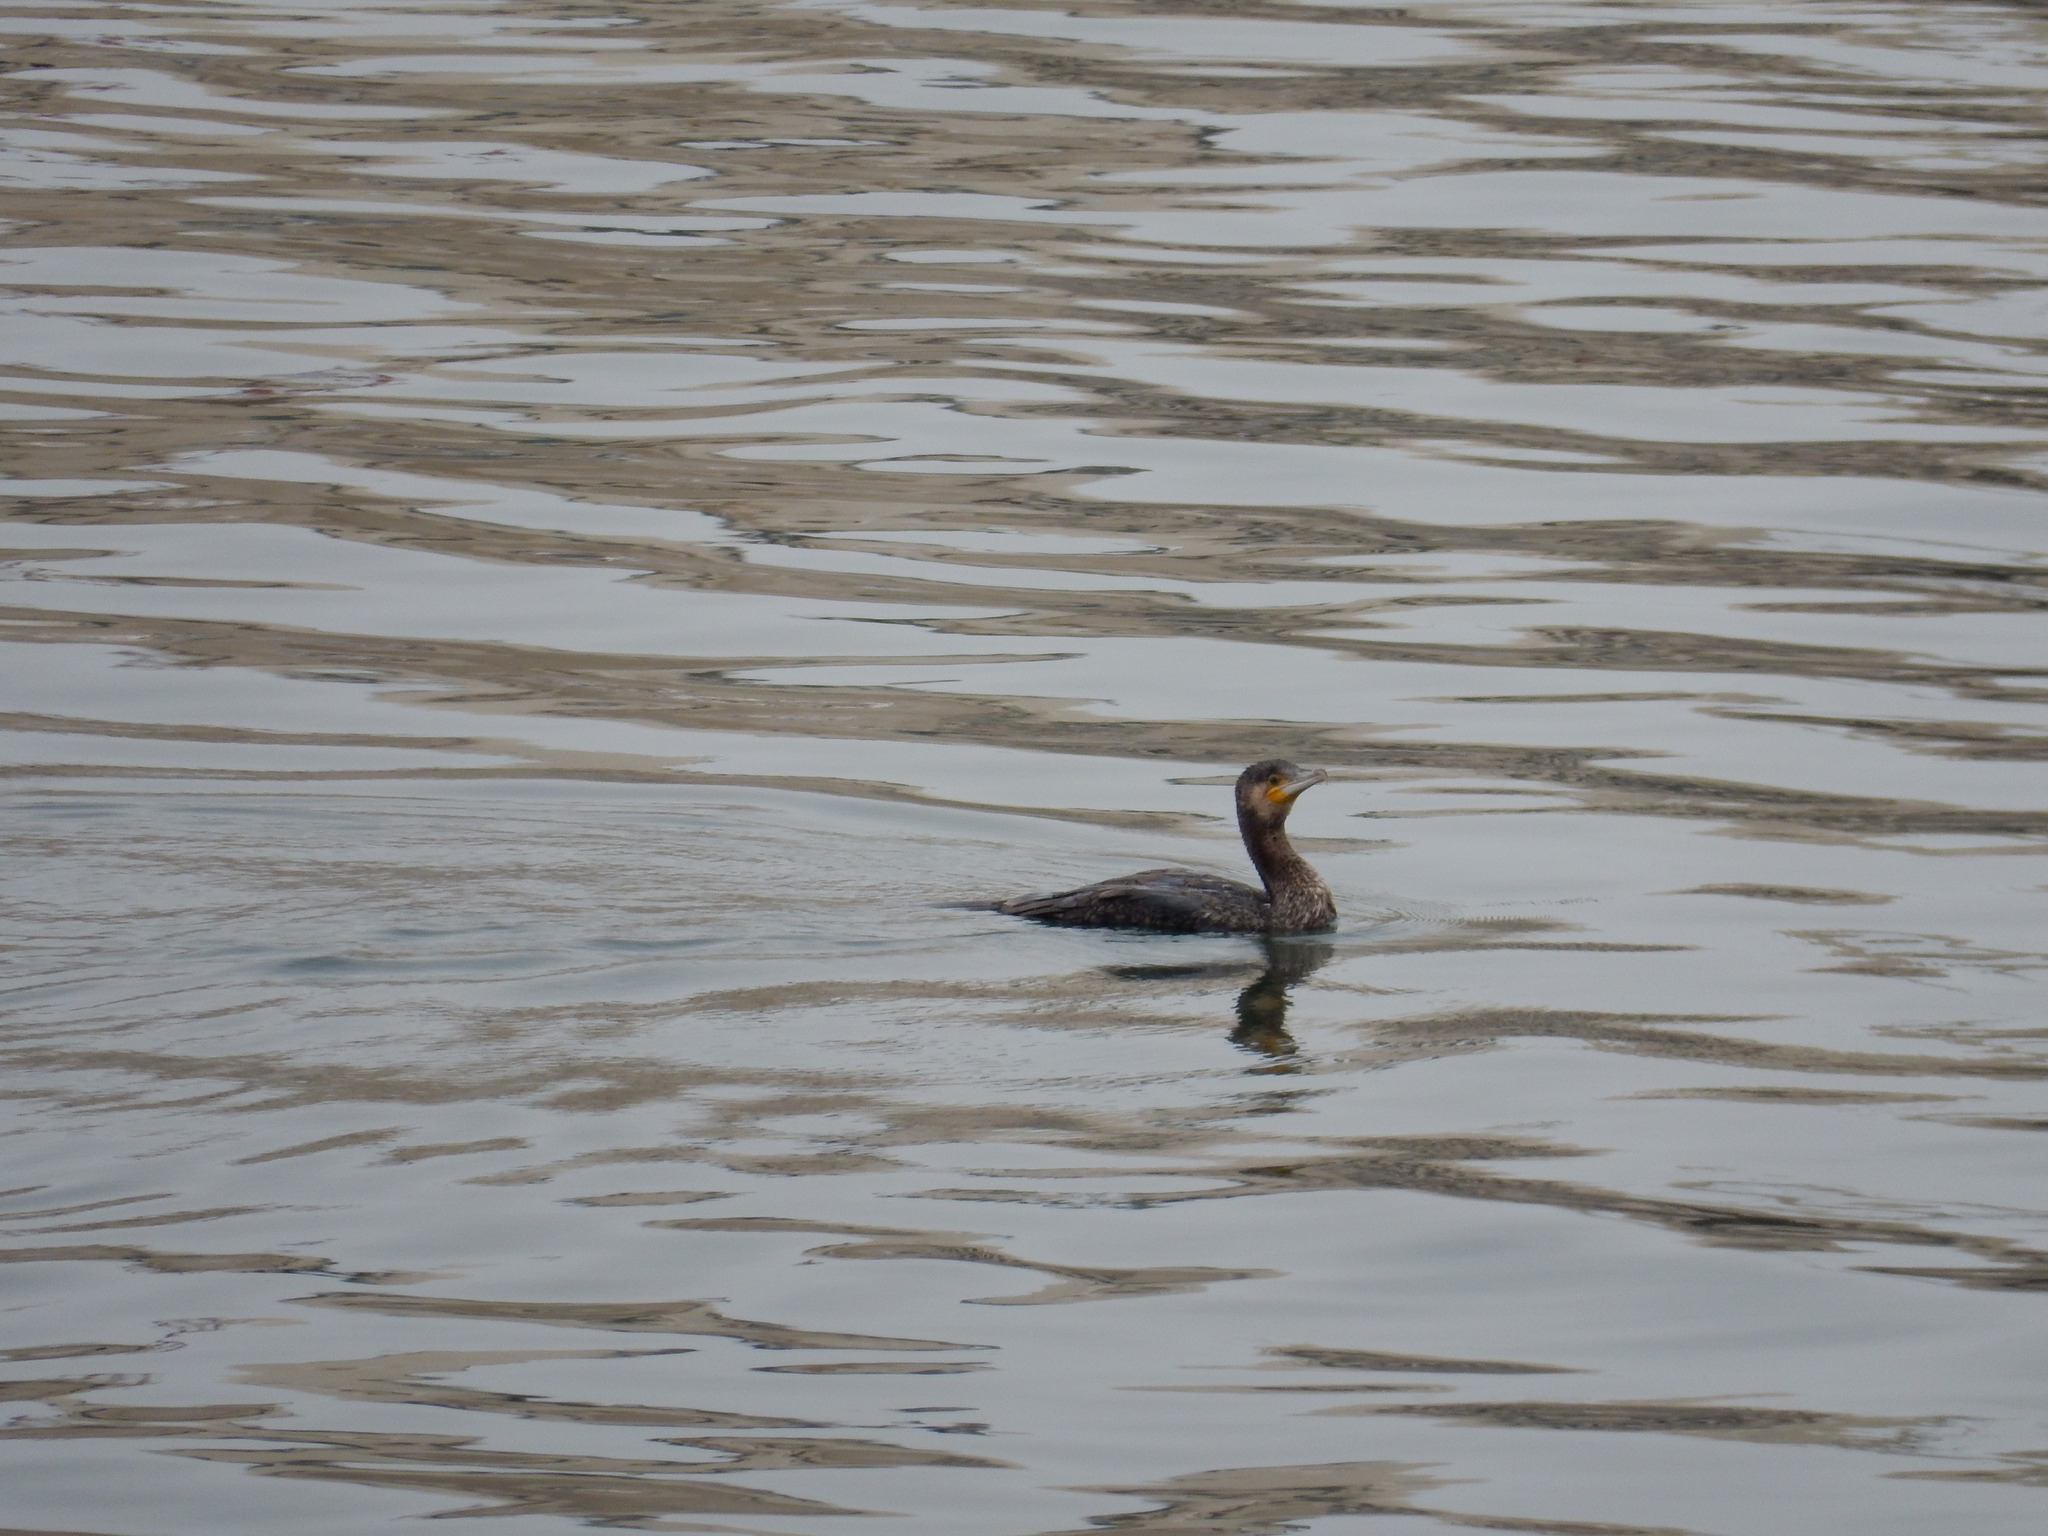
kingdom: Animalia
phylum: Chordata
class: Aves
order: Suliformes
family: Phalacrocoracidae
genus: Phalacrocorax
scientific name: Phalacrocorax carbo
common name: Great cormorant
